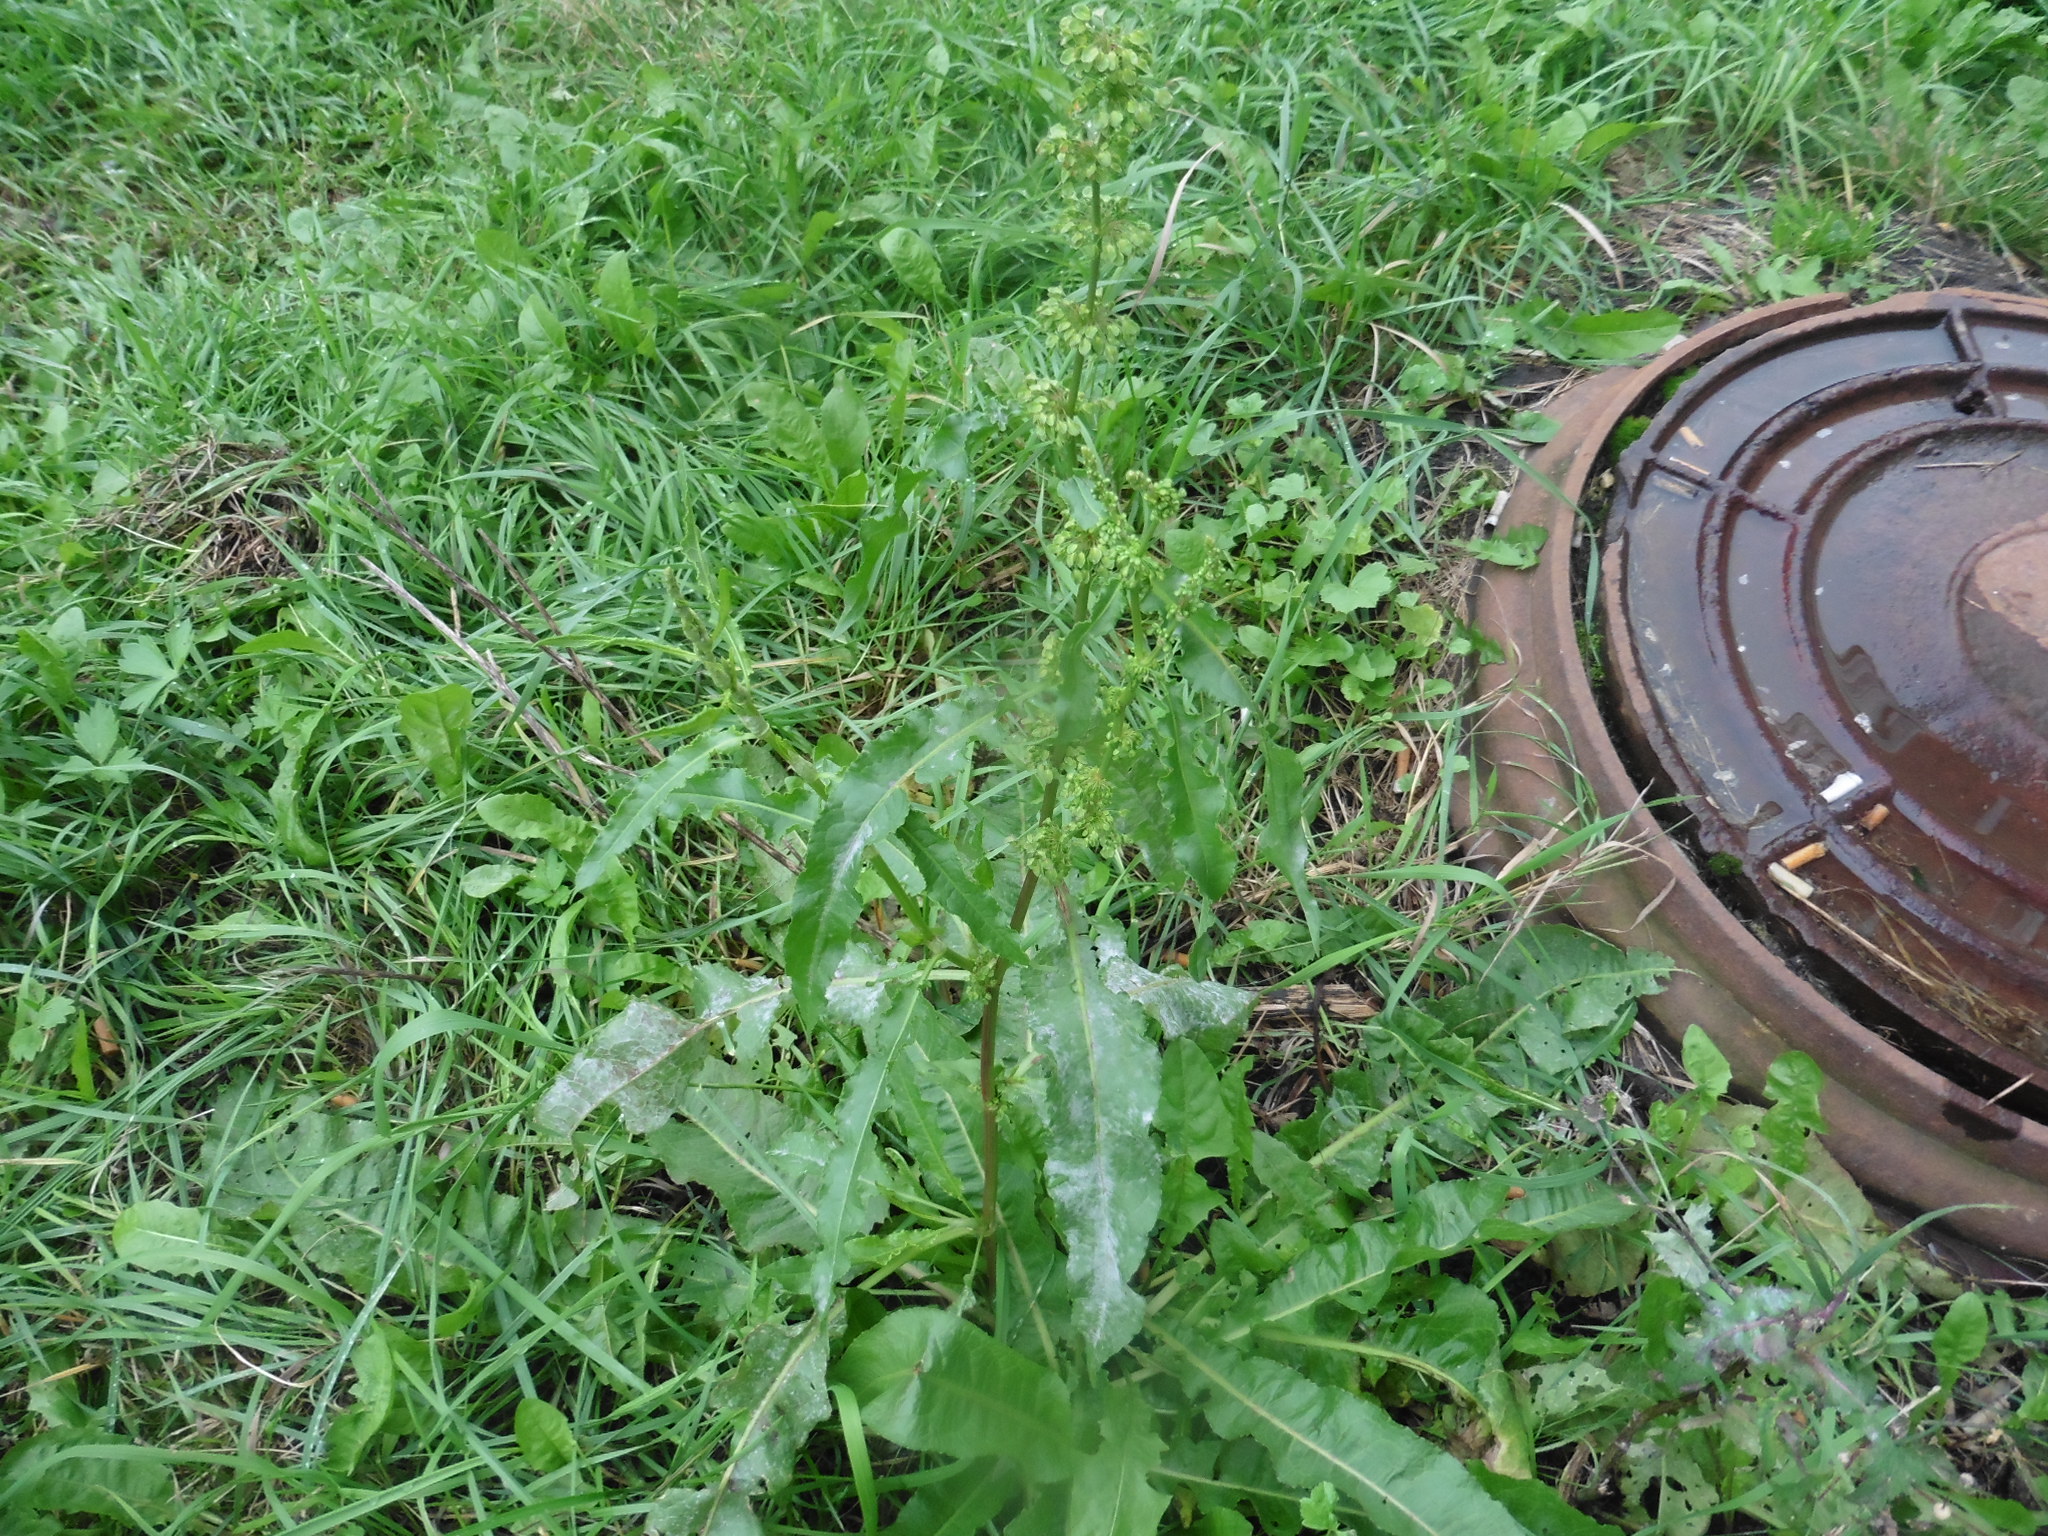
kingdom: Plantae
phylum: Tracheophyta
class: Magnoliopsida
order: Caryophyllales
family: Polygonaceae
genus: Rumex
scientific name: Rumex crispus
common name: Curled dock
